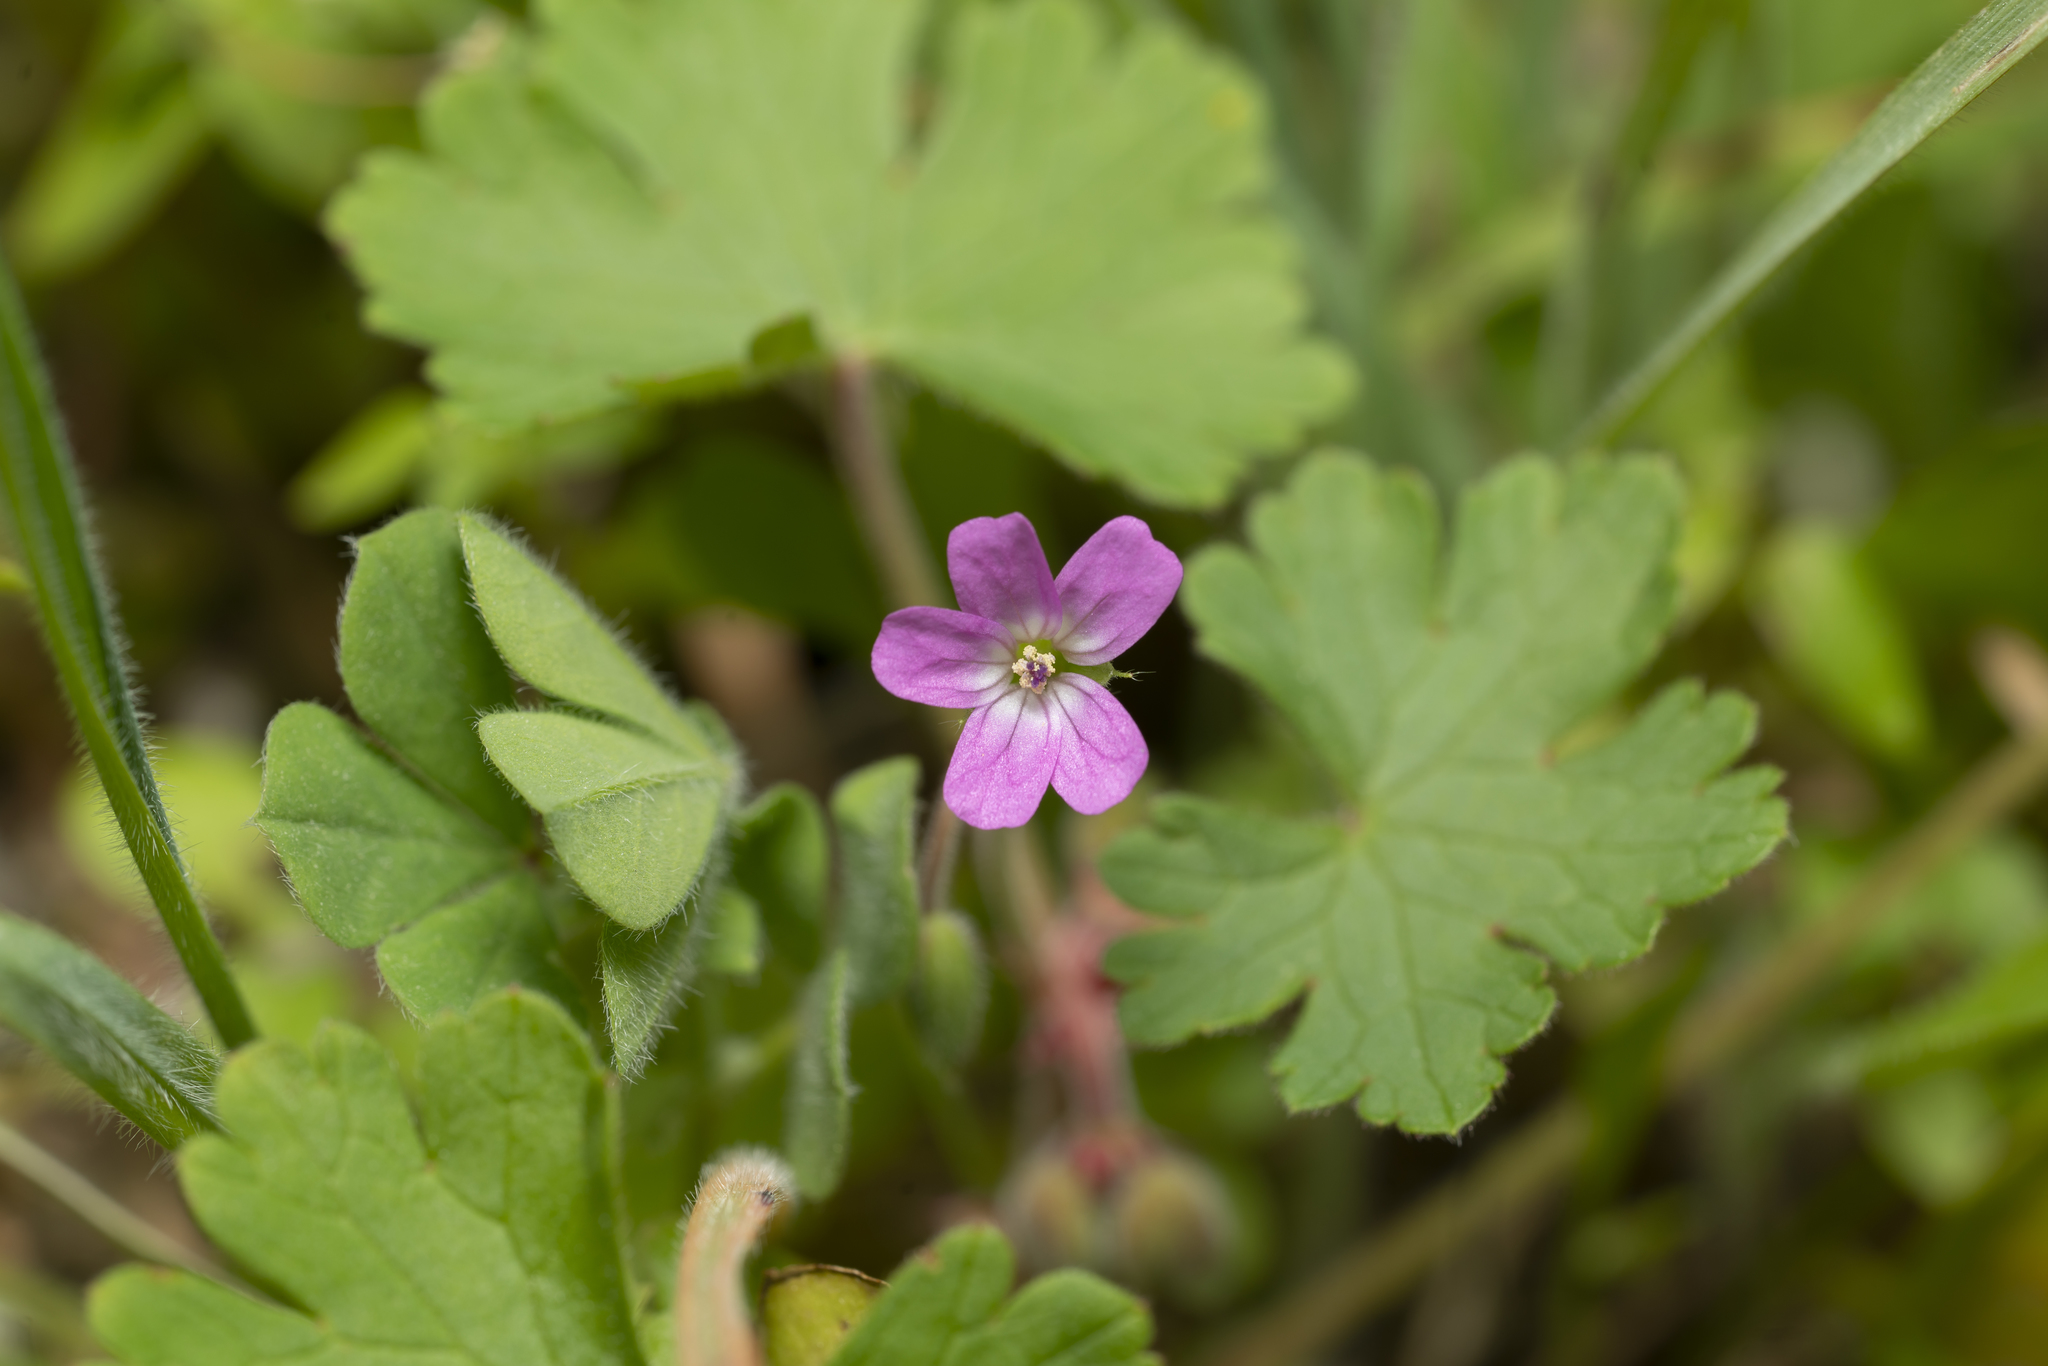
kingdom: Plantae
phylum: Tracheophyta
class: Magnoliopsida
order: Geraniales
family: Geraniaceae
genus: Geranium
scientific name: Geranium rotundifolium
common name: Round-leaved crane's-bill
